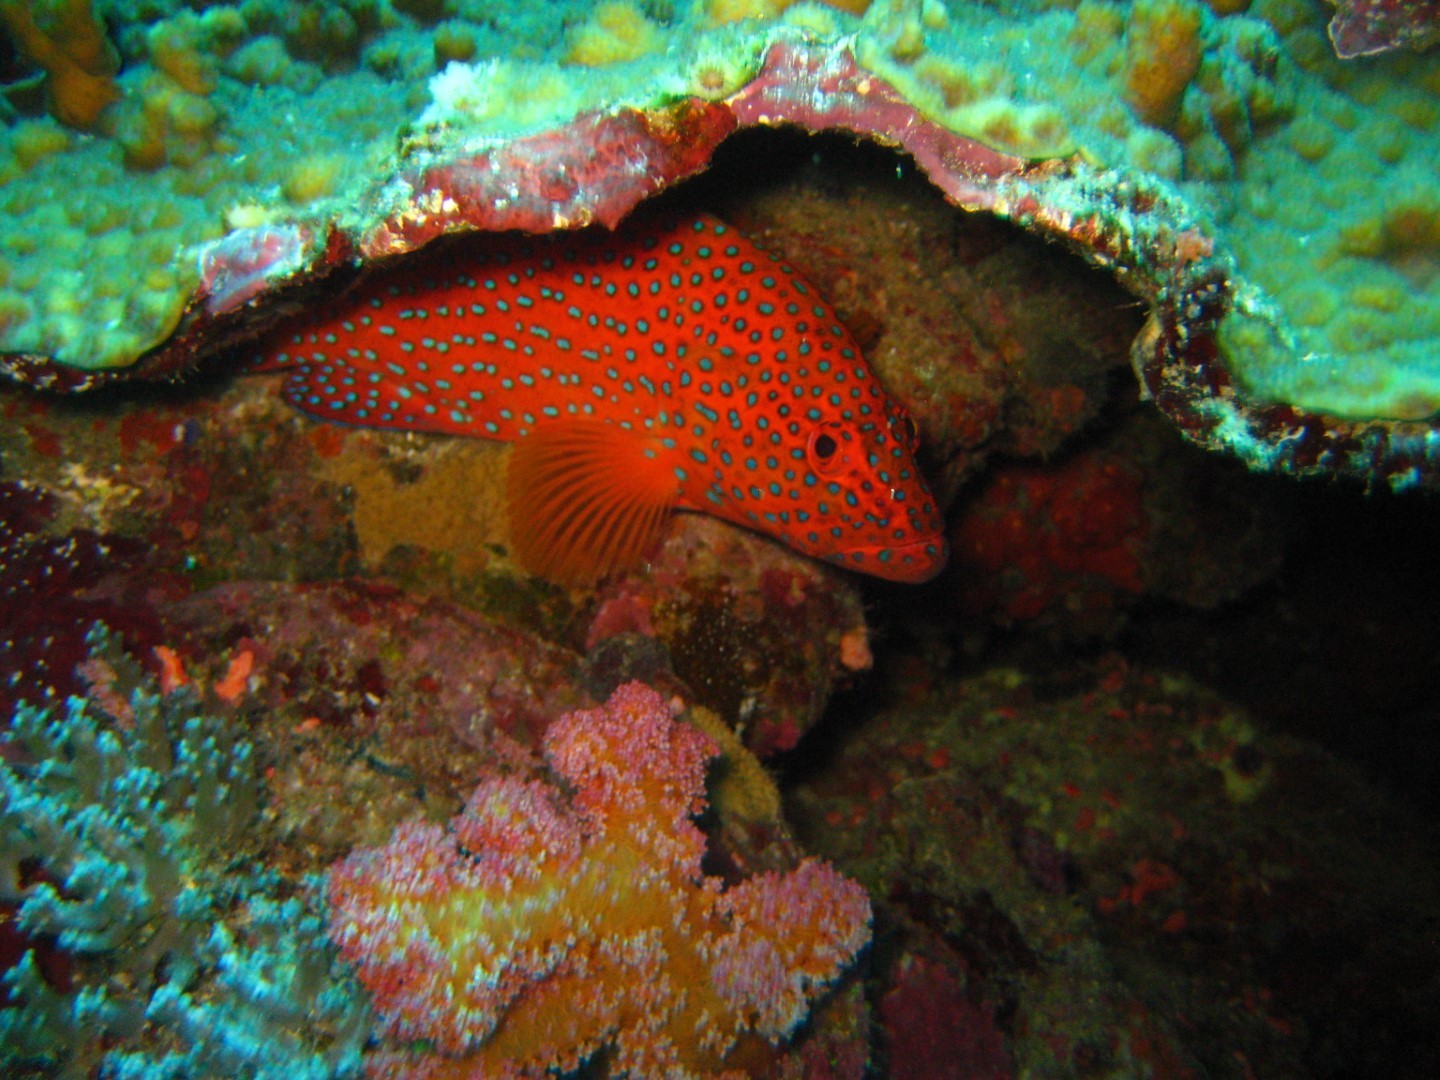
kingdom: Animalia
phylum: Chordata
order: Perciformes
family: Serranidae
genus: Cephalopholis
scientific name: Cephalopholis miniata
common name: Coral hind
